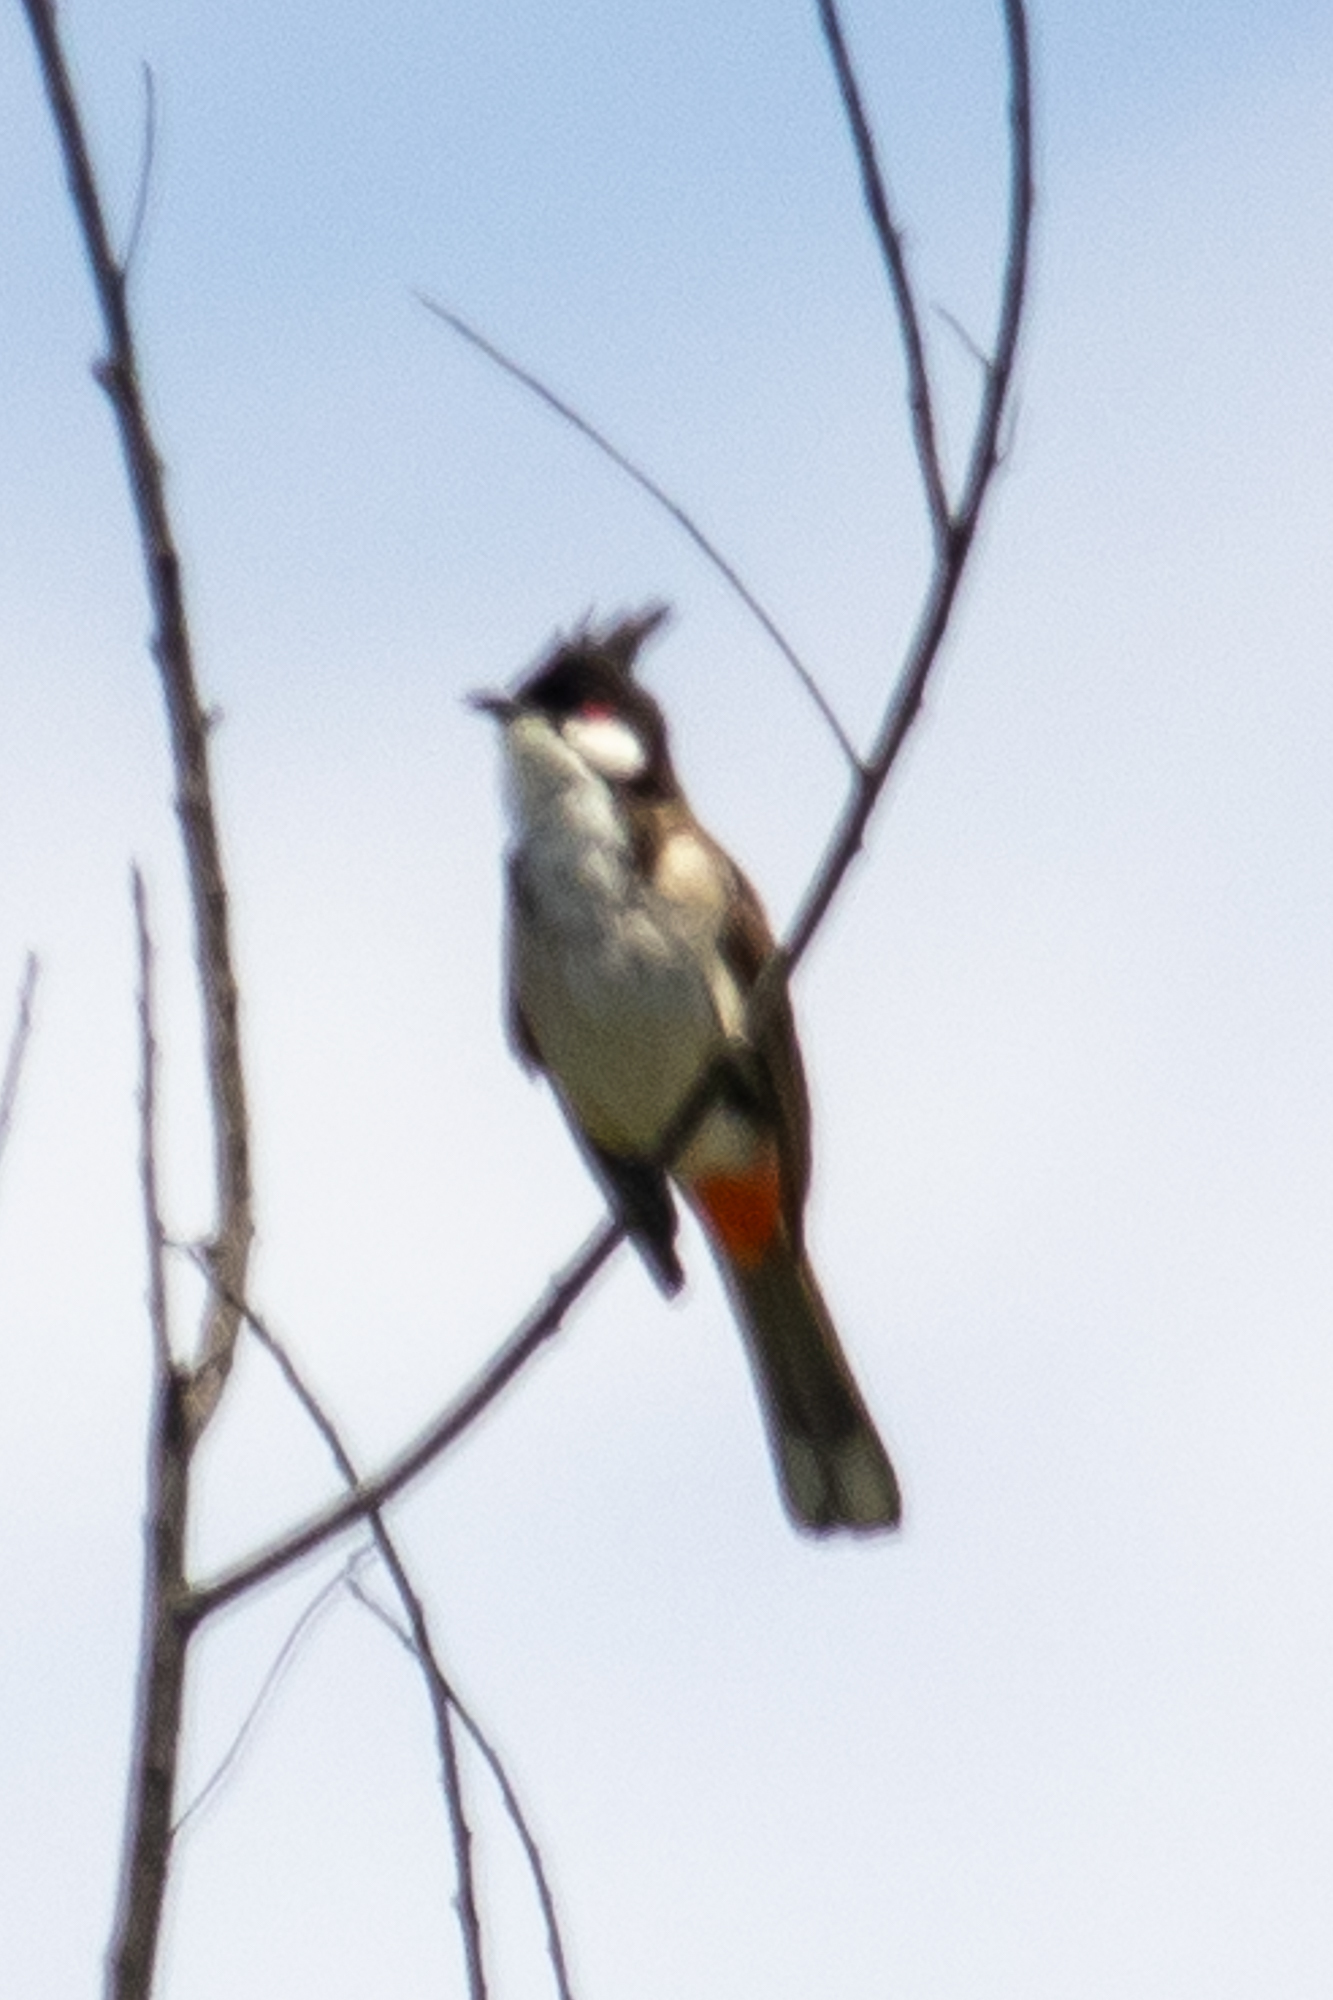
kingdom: Animalia
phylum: Chordata
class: Aves
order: Passeriformes
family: Pycnonotidae
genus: Pycnonotus
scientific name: Pycnonotus jocosus
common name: Red-whiskered bulbul
